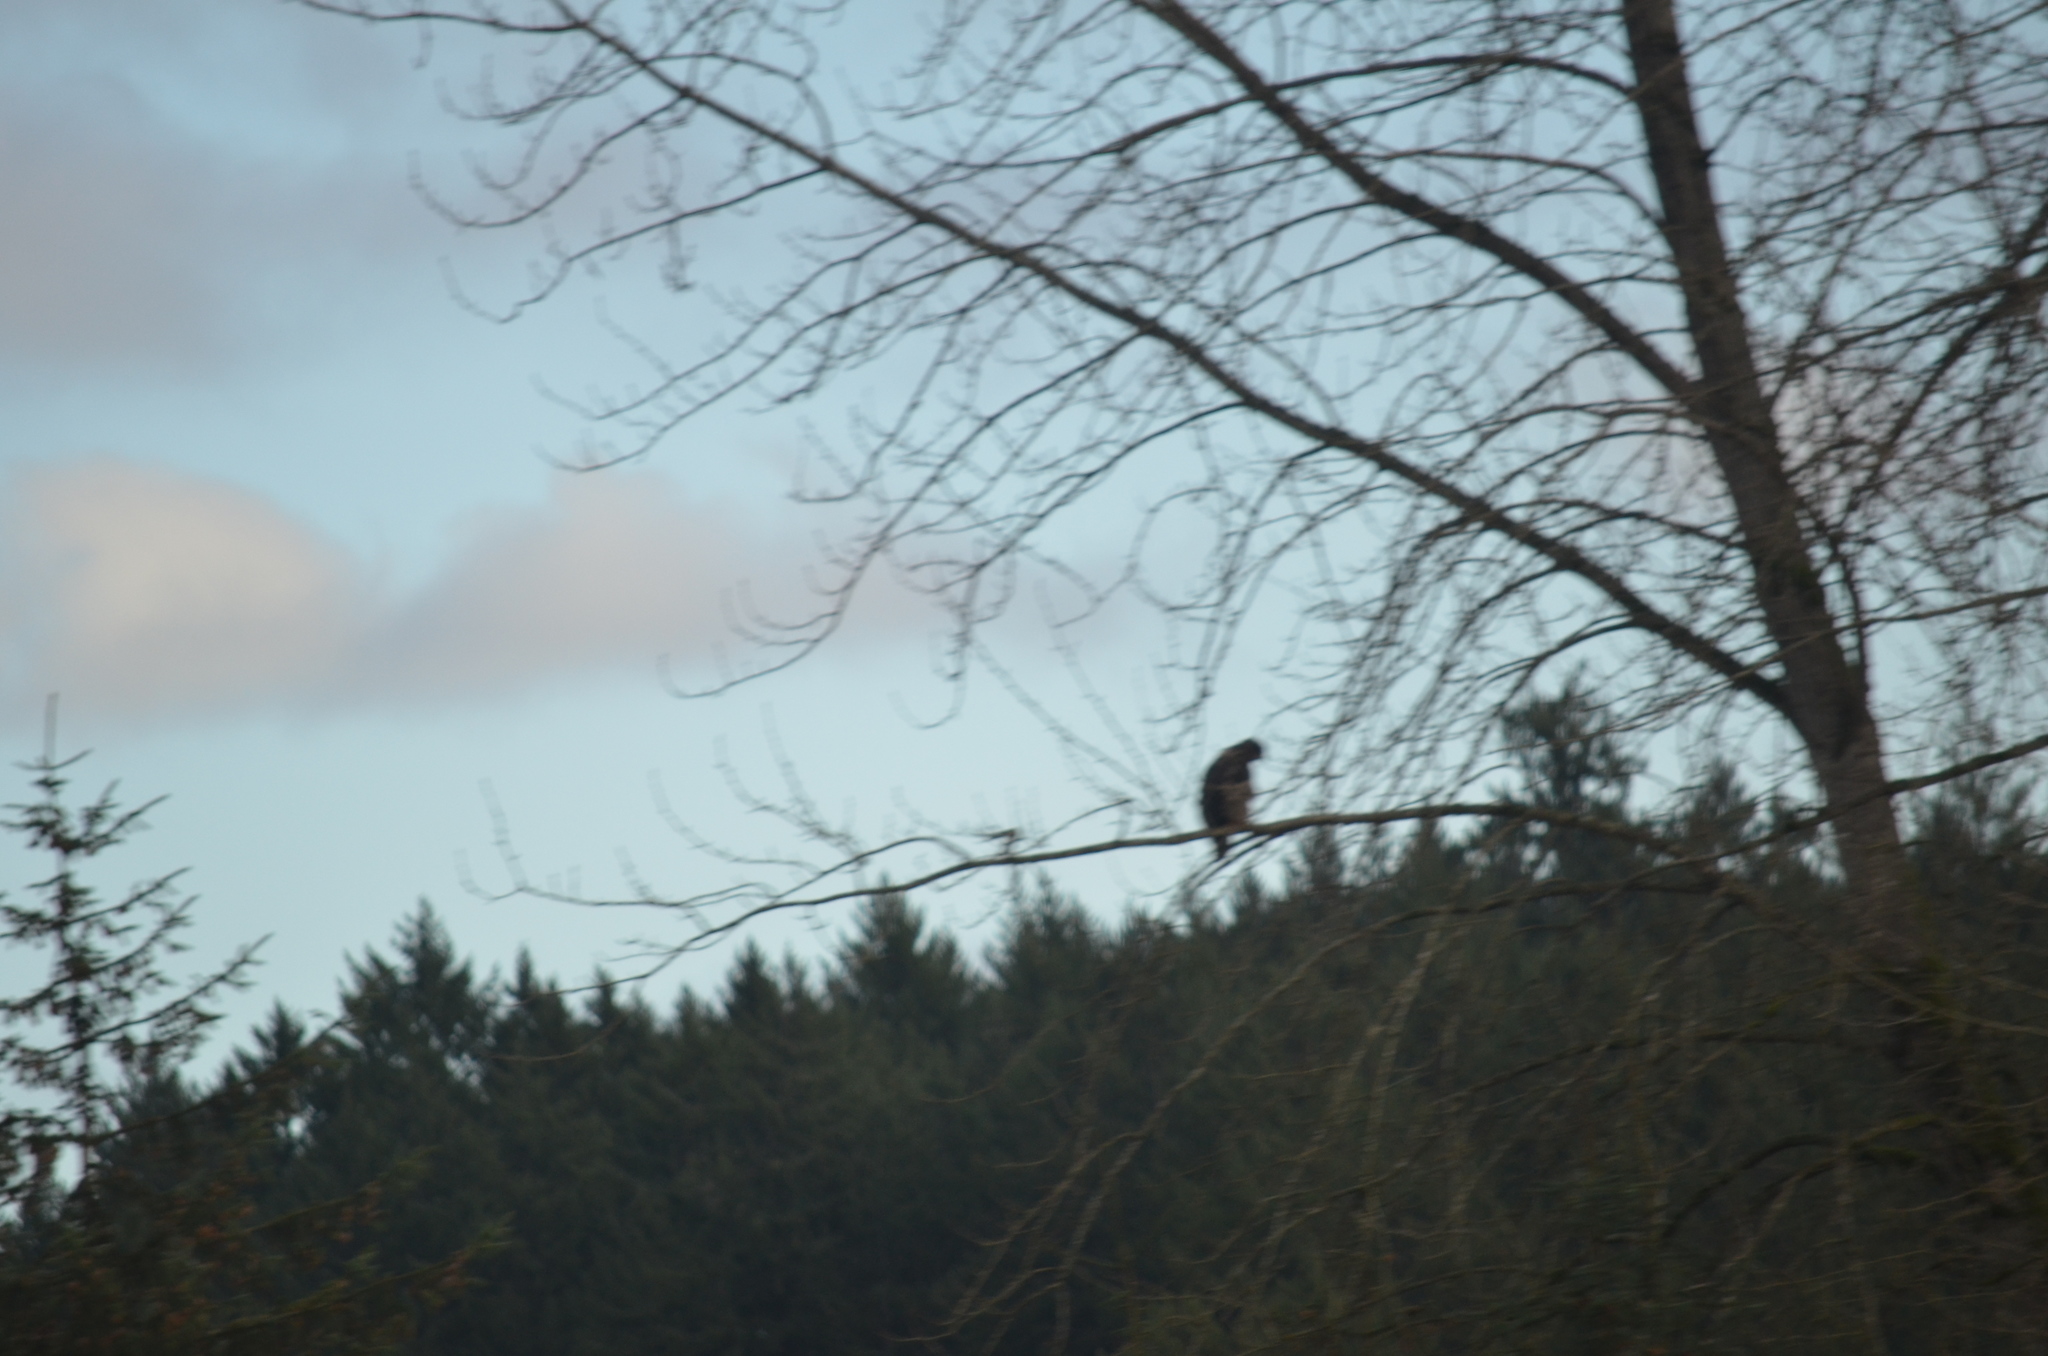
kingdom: Animalia
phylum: Chordata
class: Aves
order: Accipitriformes
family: Accipitridae
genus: Buteo
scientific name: Buteo jamaicensis
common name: Red-tailed hawk
